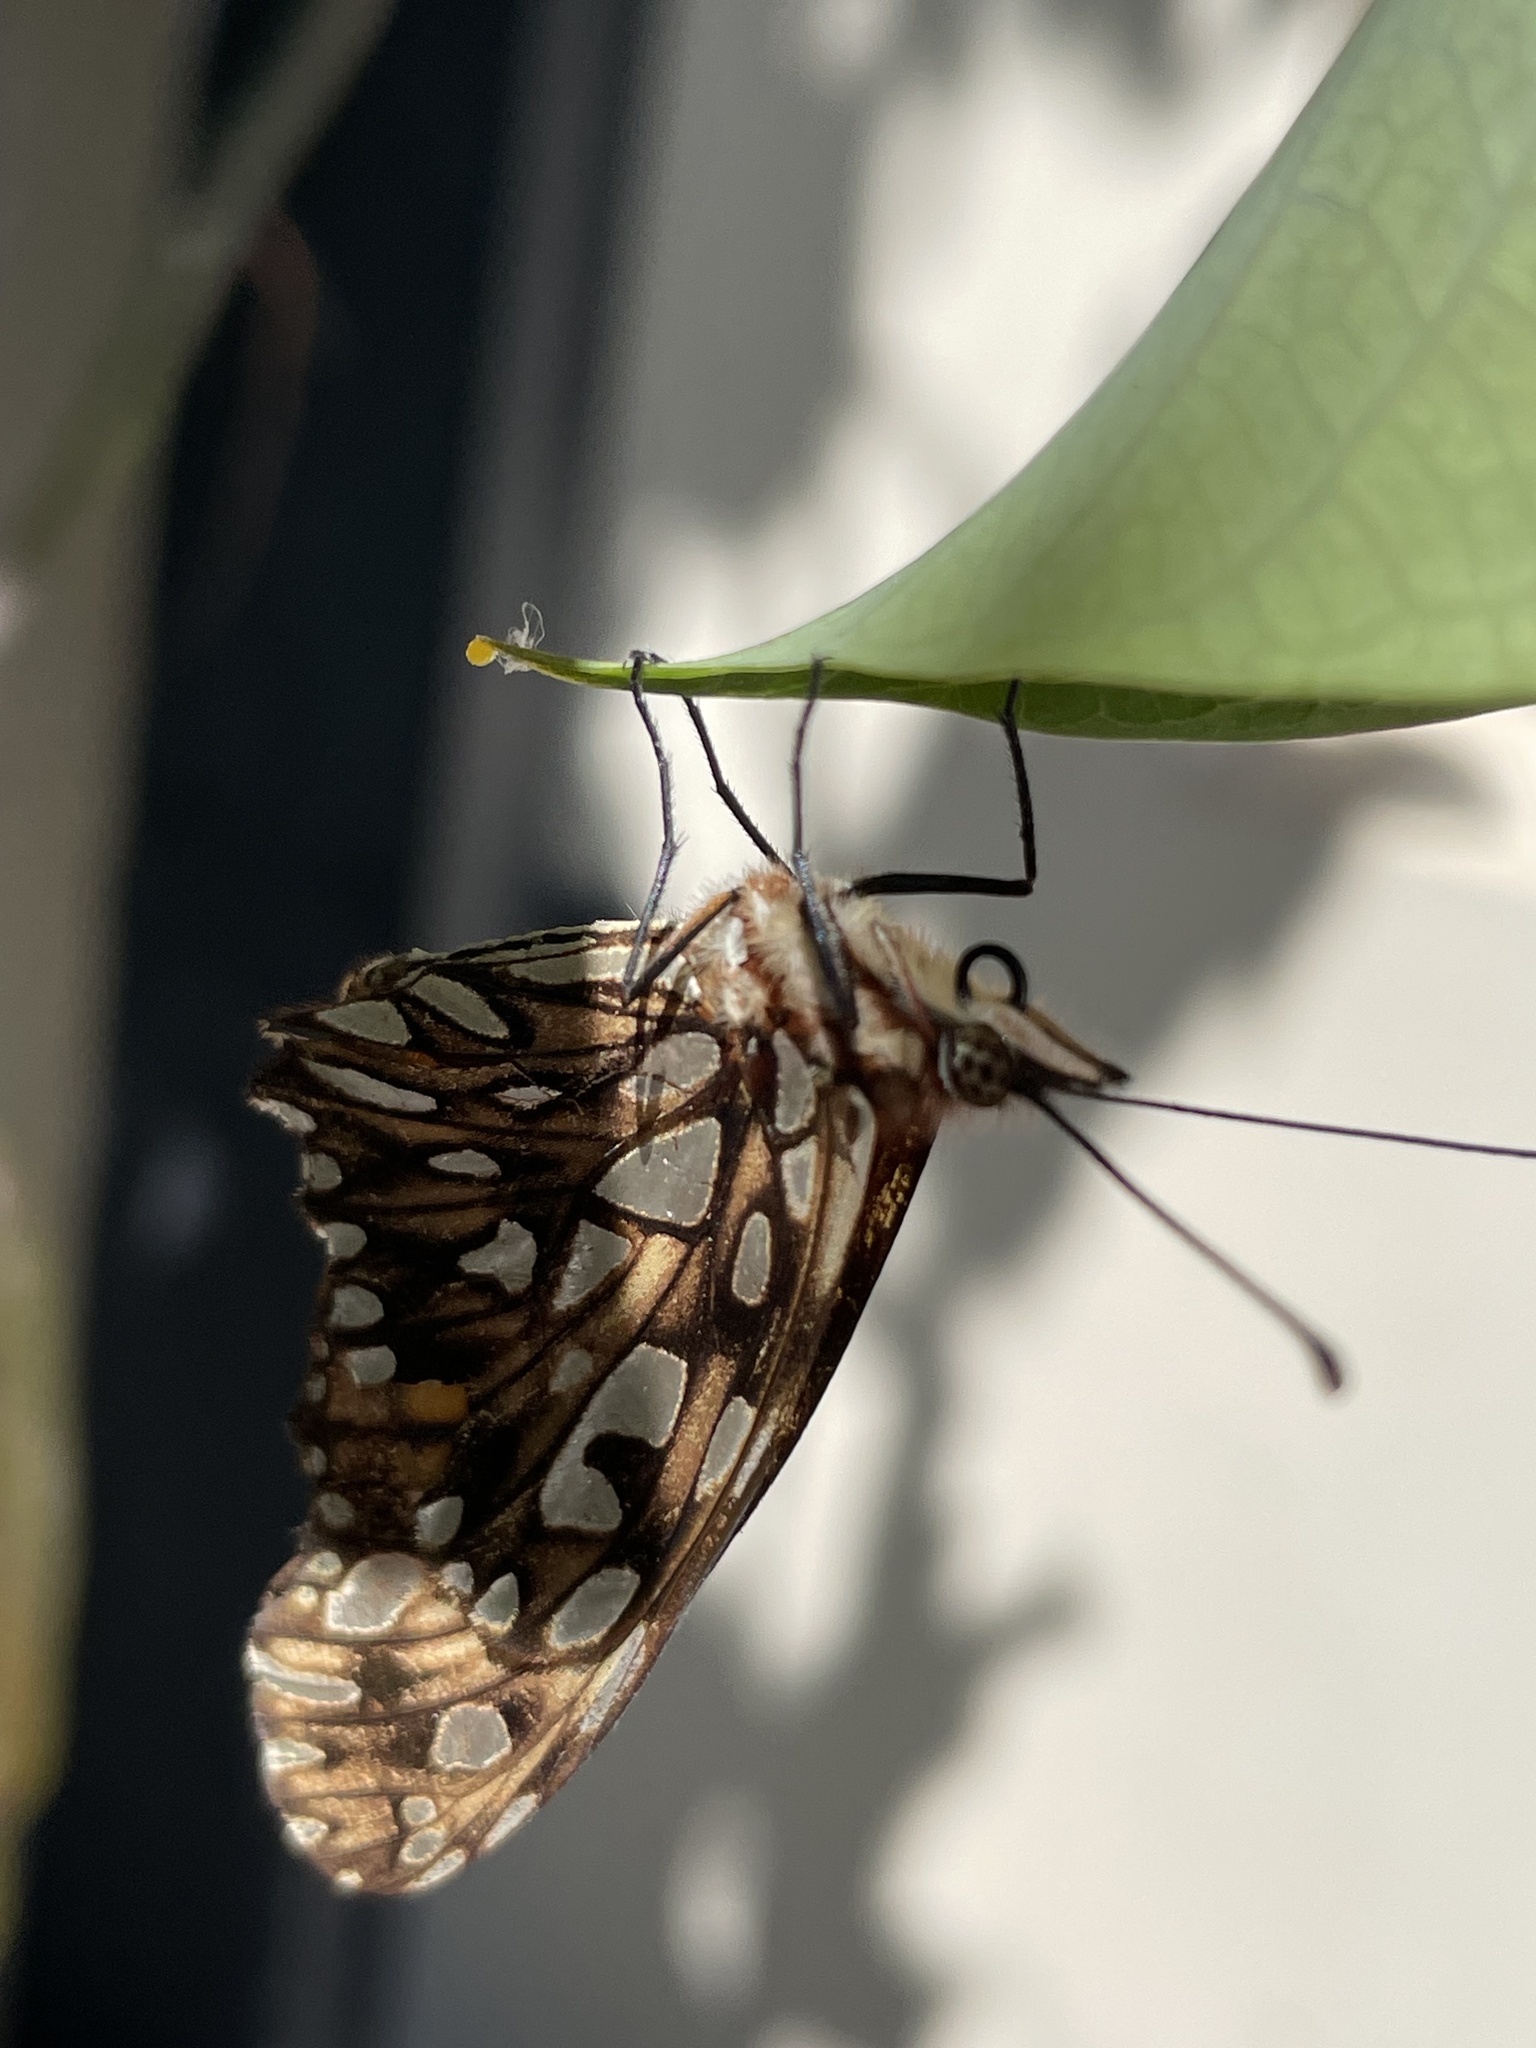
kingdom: Animalia
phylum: Arthropoda
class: Insecta
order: Lepidoptera
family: Nymphalidae
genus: Dione
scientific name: Dione juno
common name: Juno silverspot
